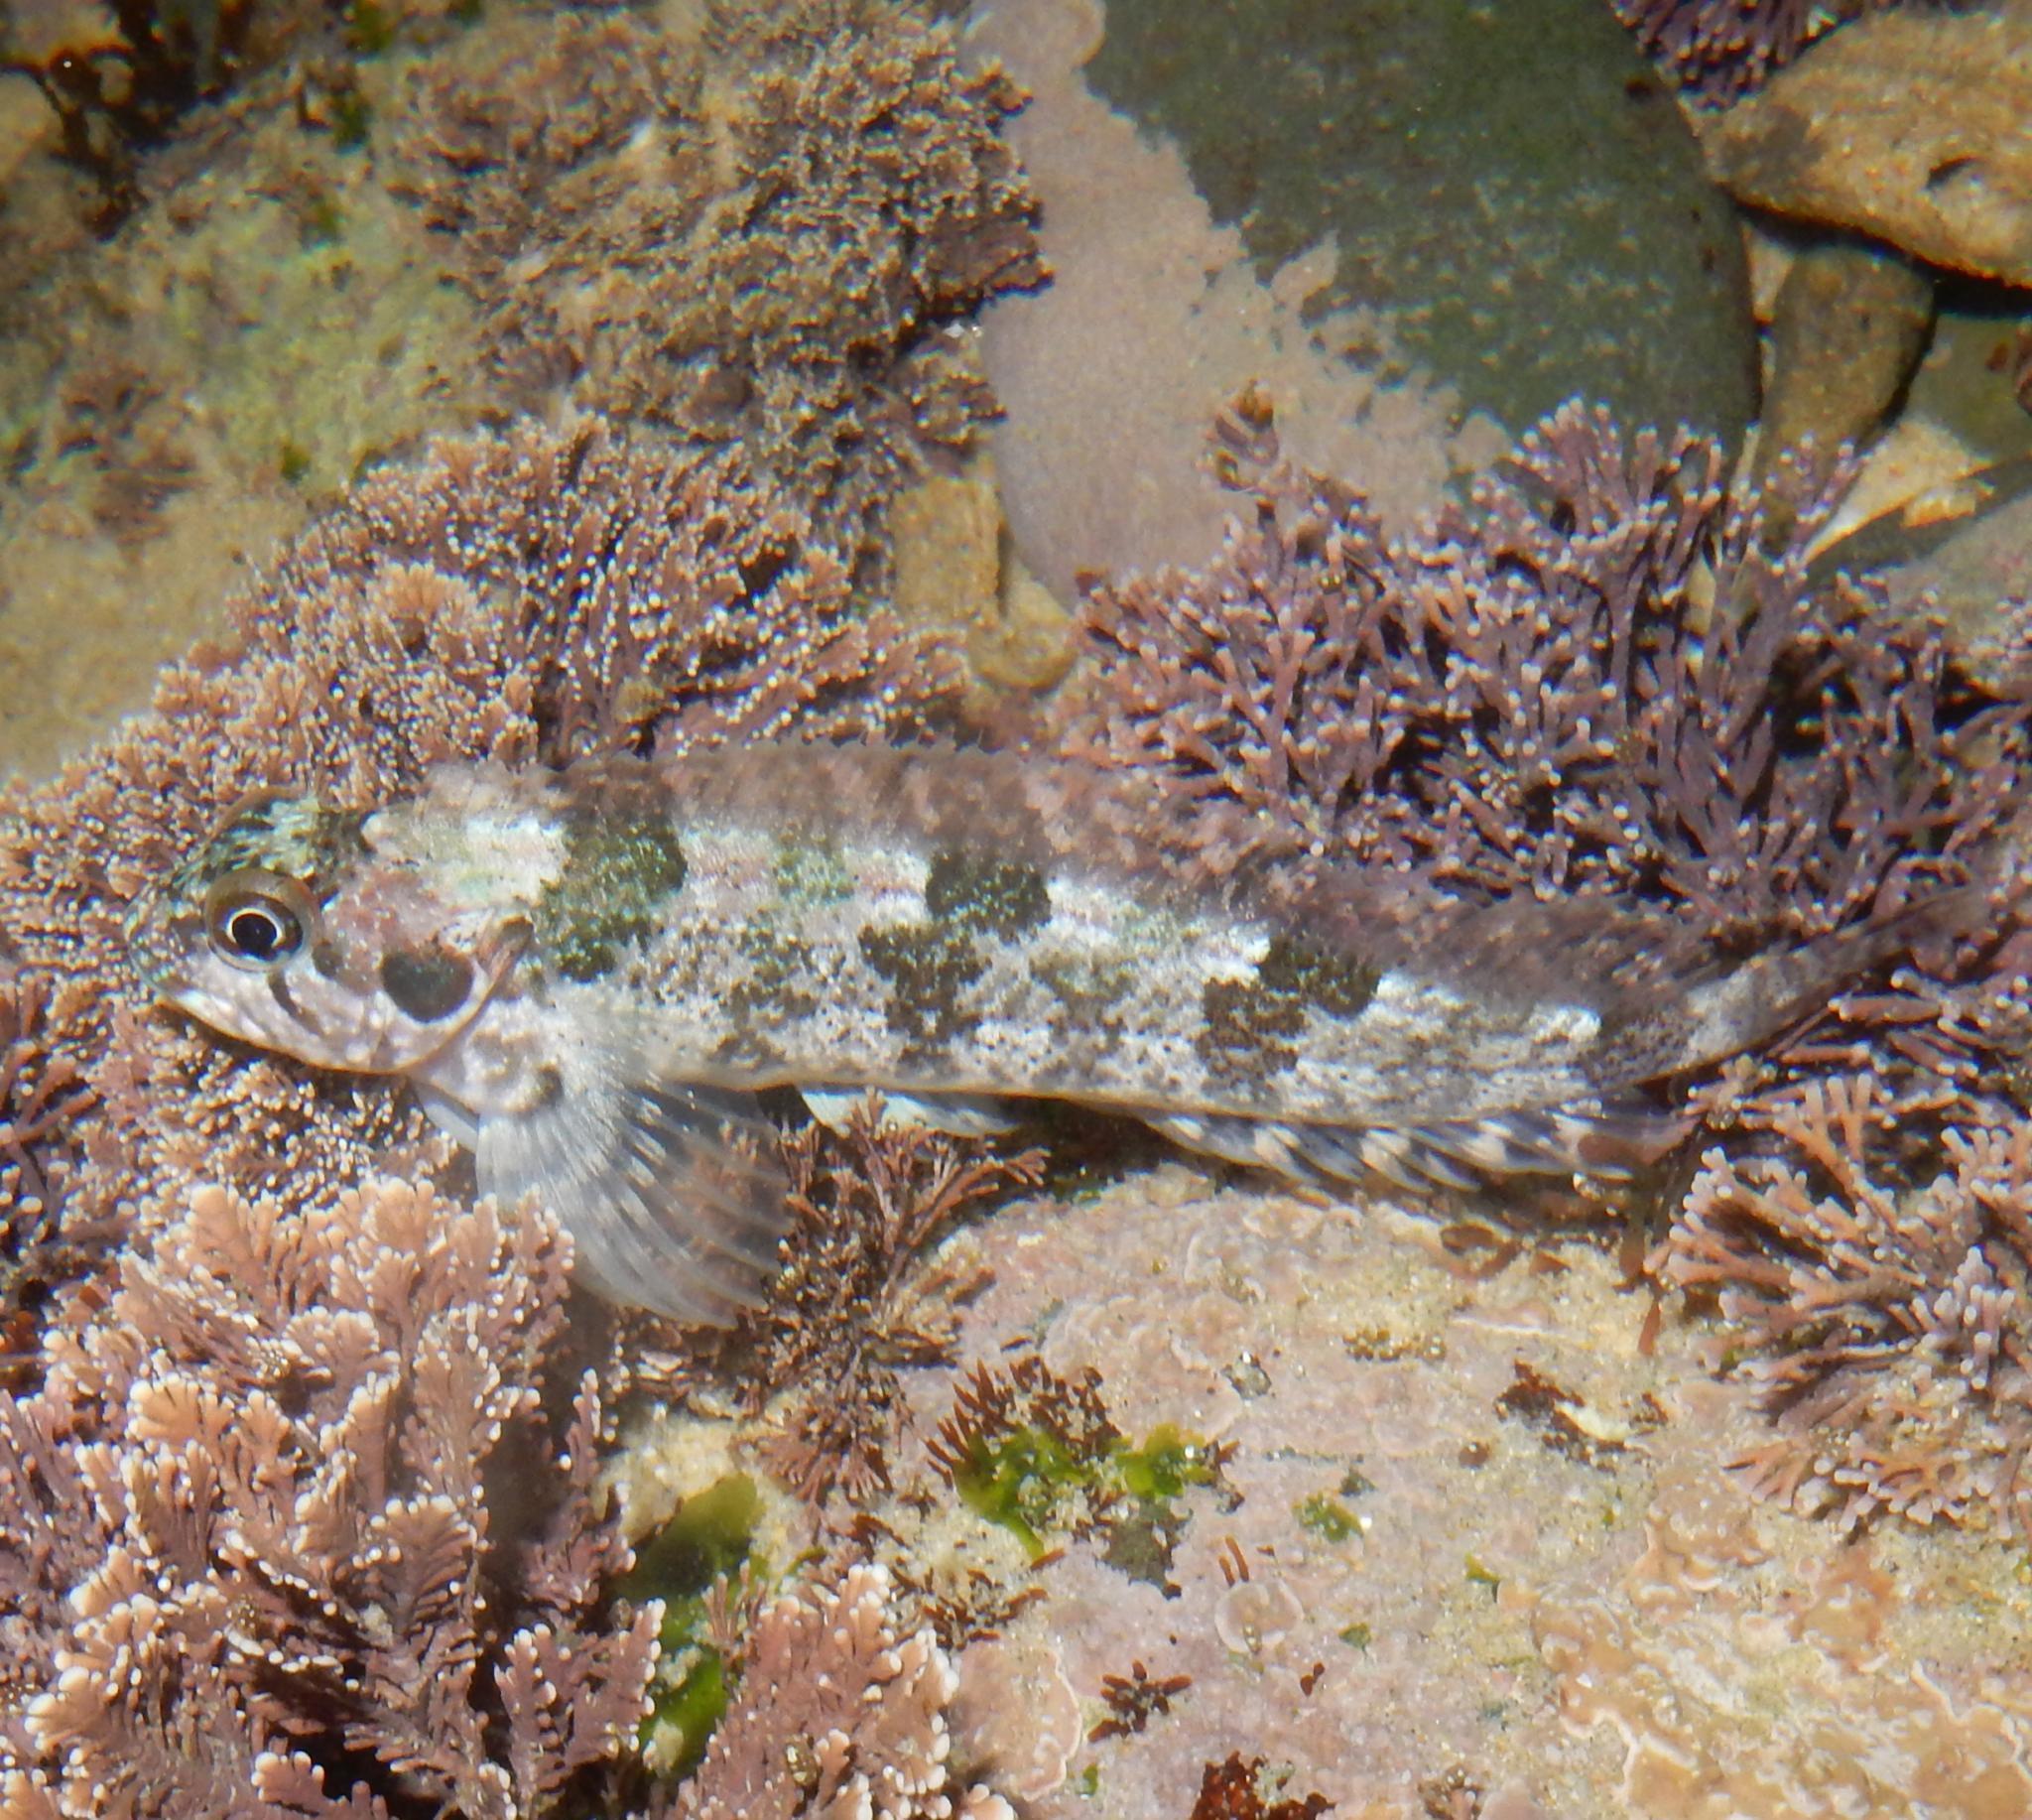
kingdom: Animalia
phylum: Chordata
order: Perciformes
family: Clinidae
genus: Clinus
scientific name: Clinus cottoides
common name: Bluntnose klipfish
